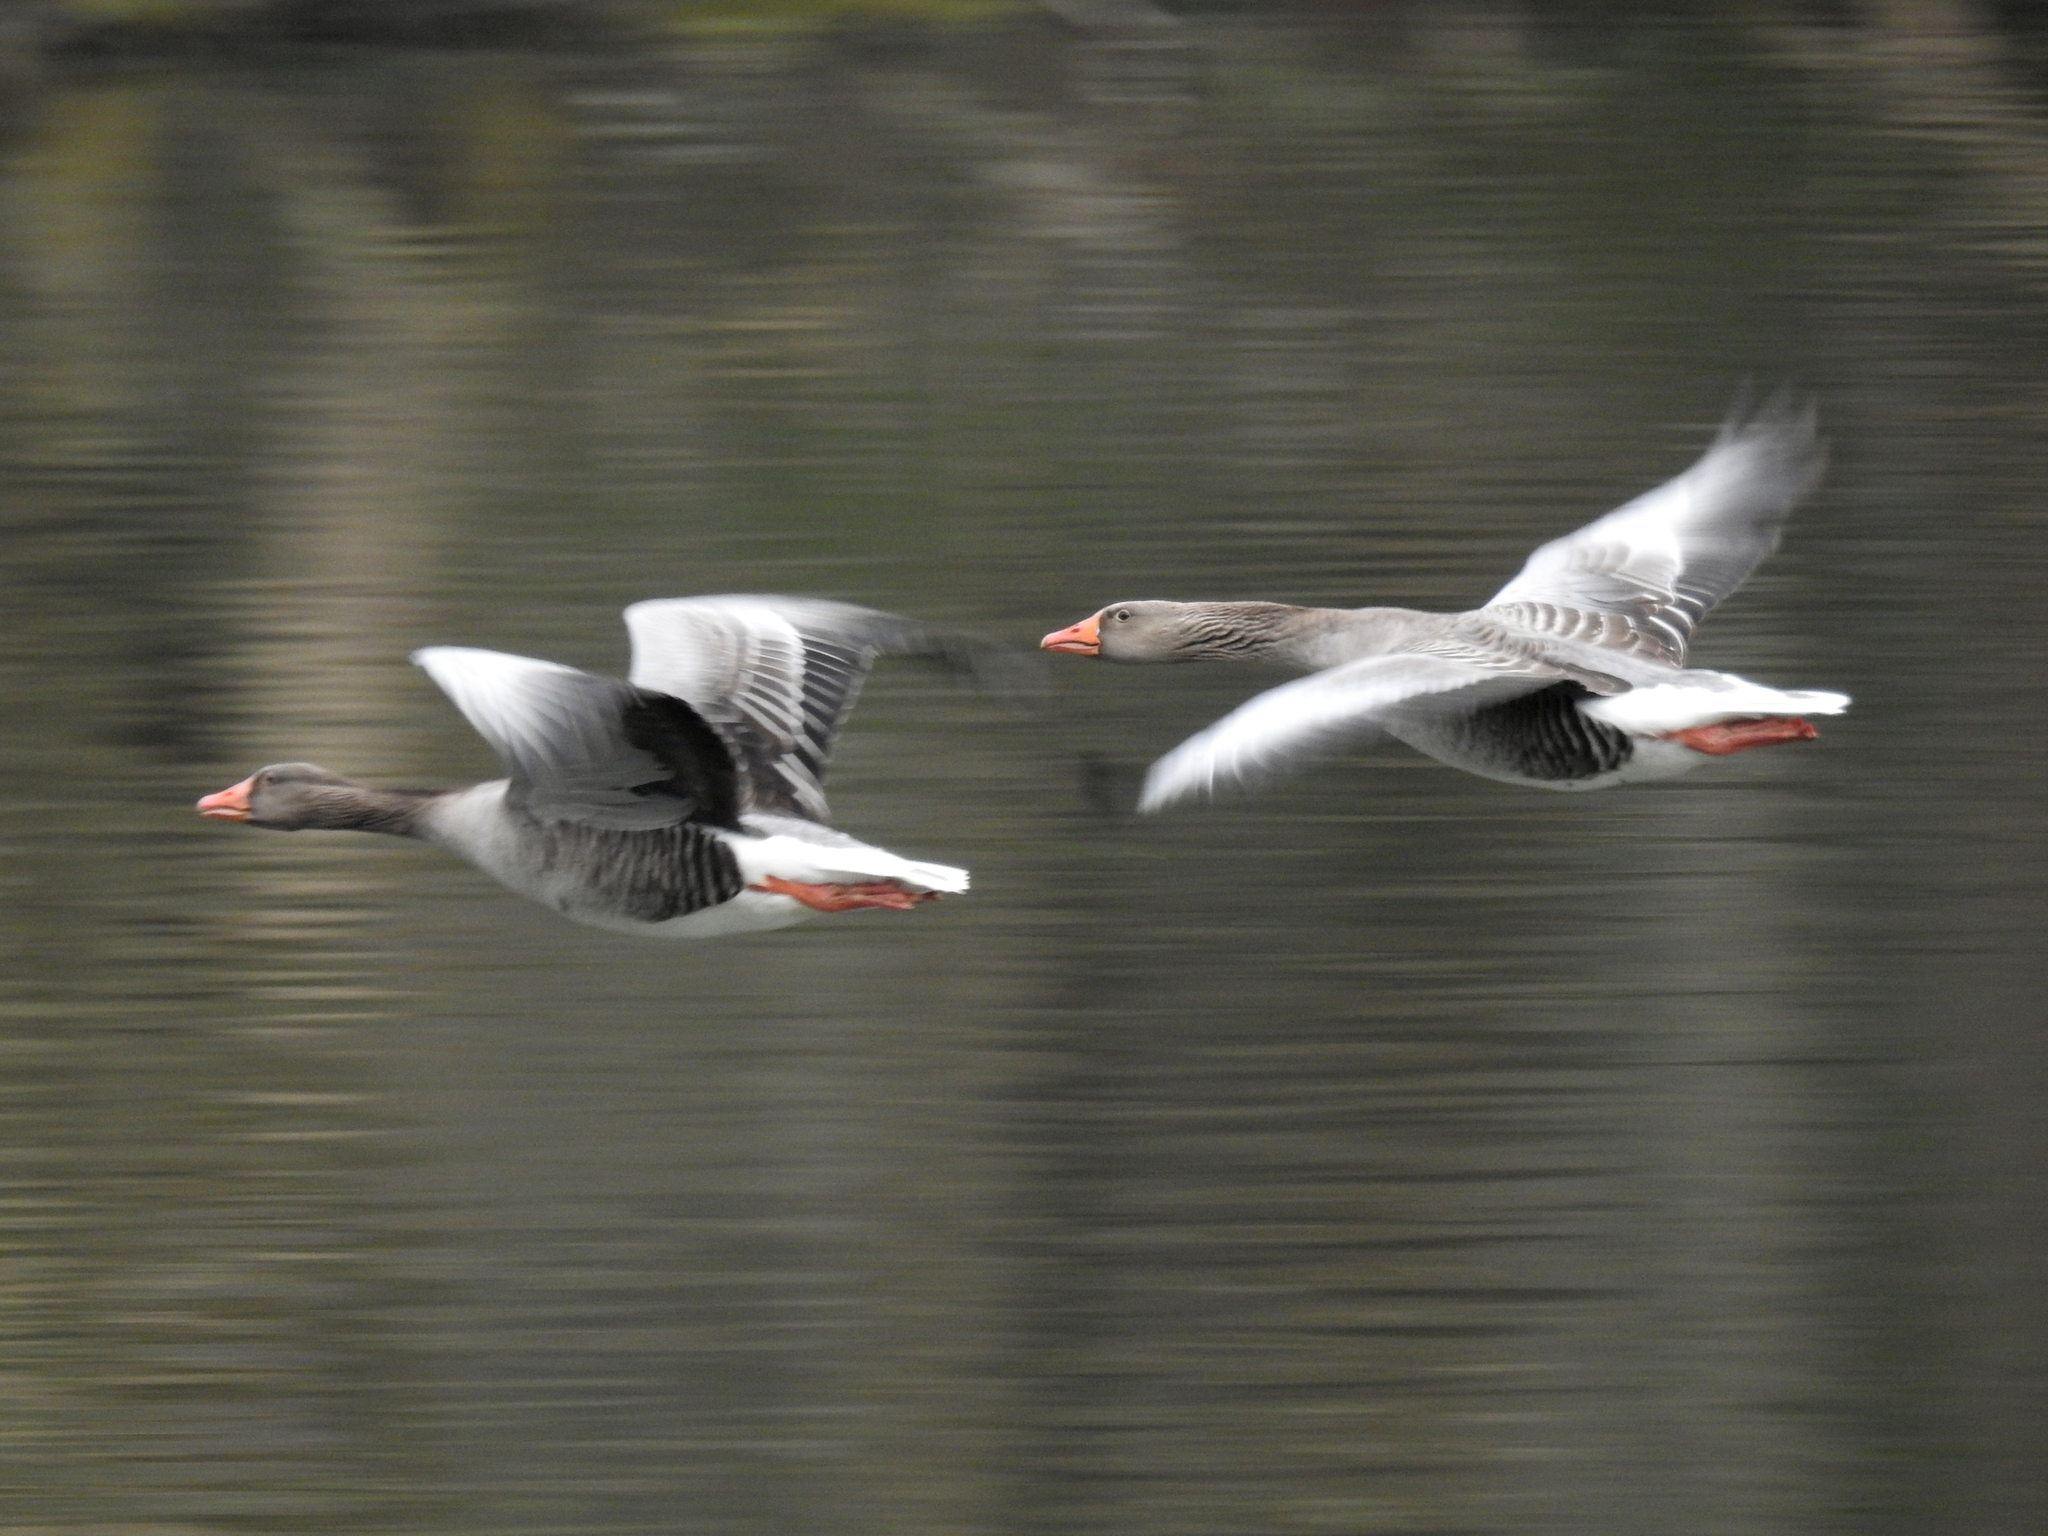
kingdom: Animalia
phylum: Chordata
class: Aves
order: Anseriformes
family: Anatidae
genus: Anser
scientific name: Anser anser
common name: Greylag goose
